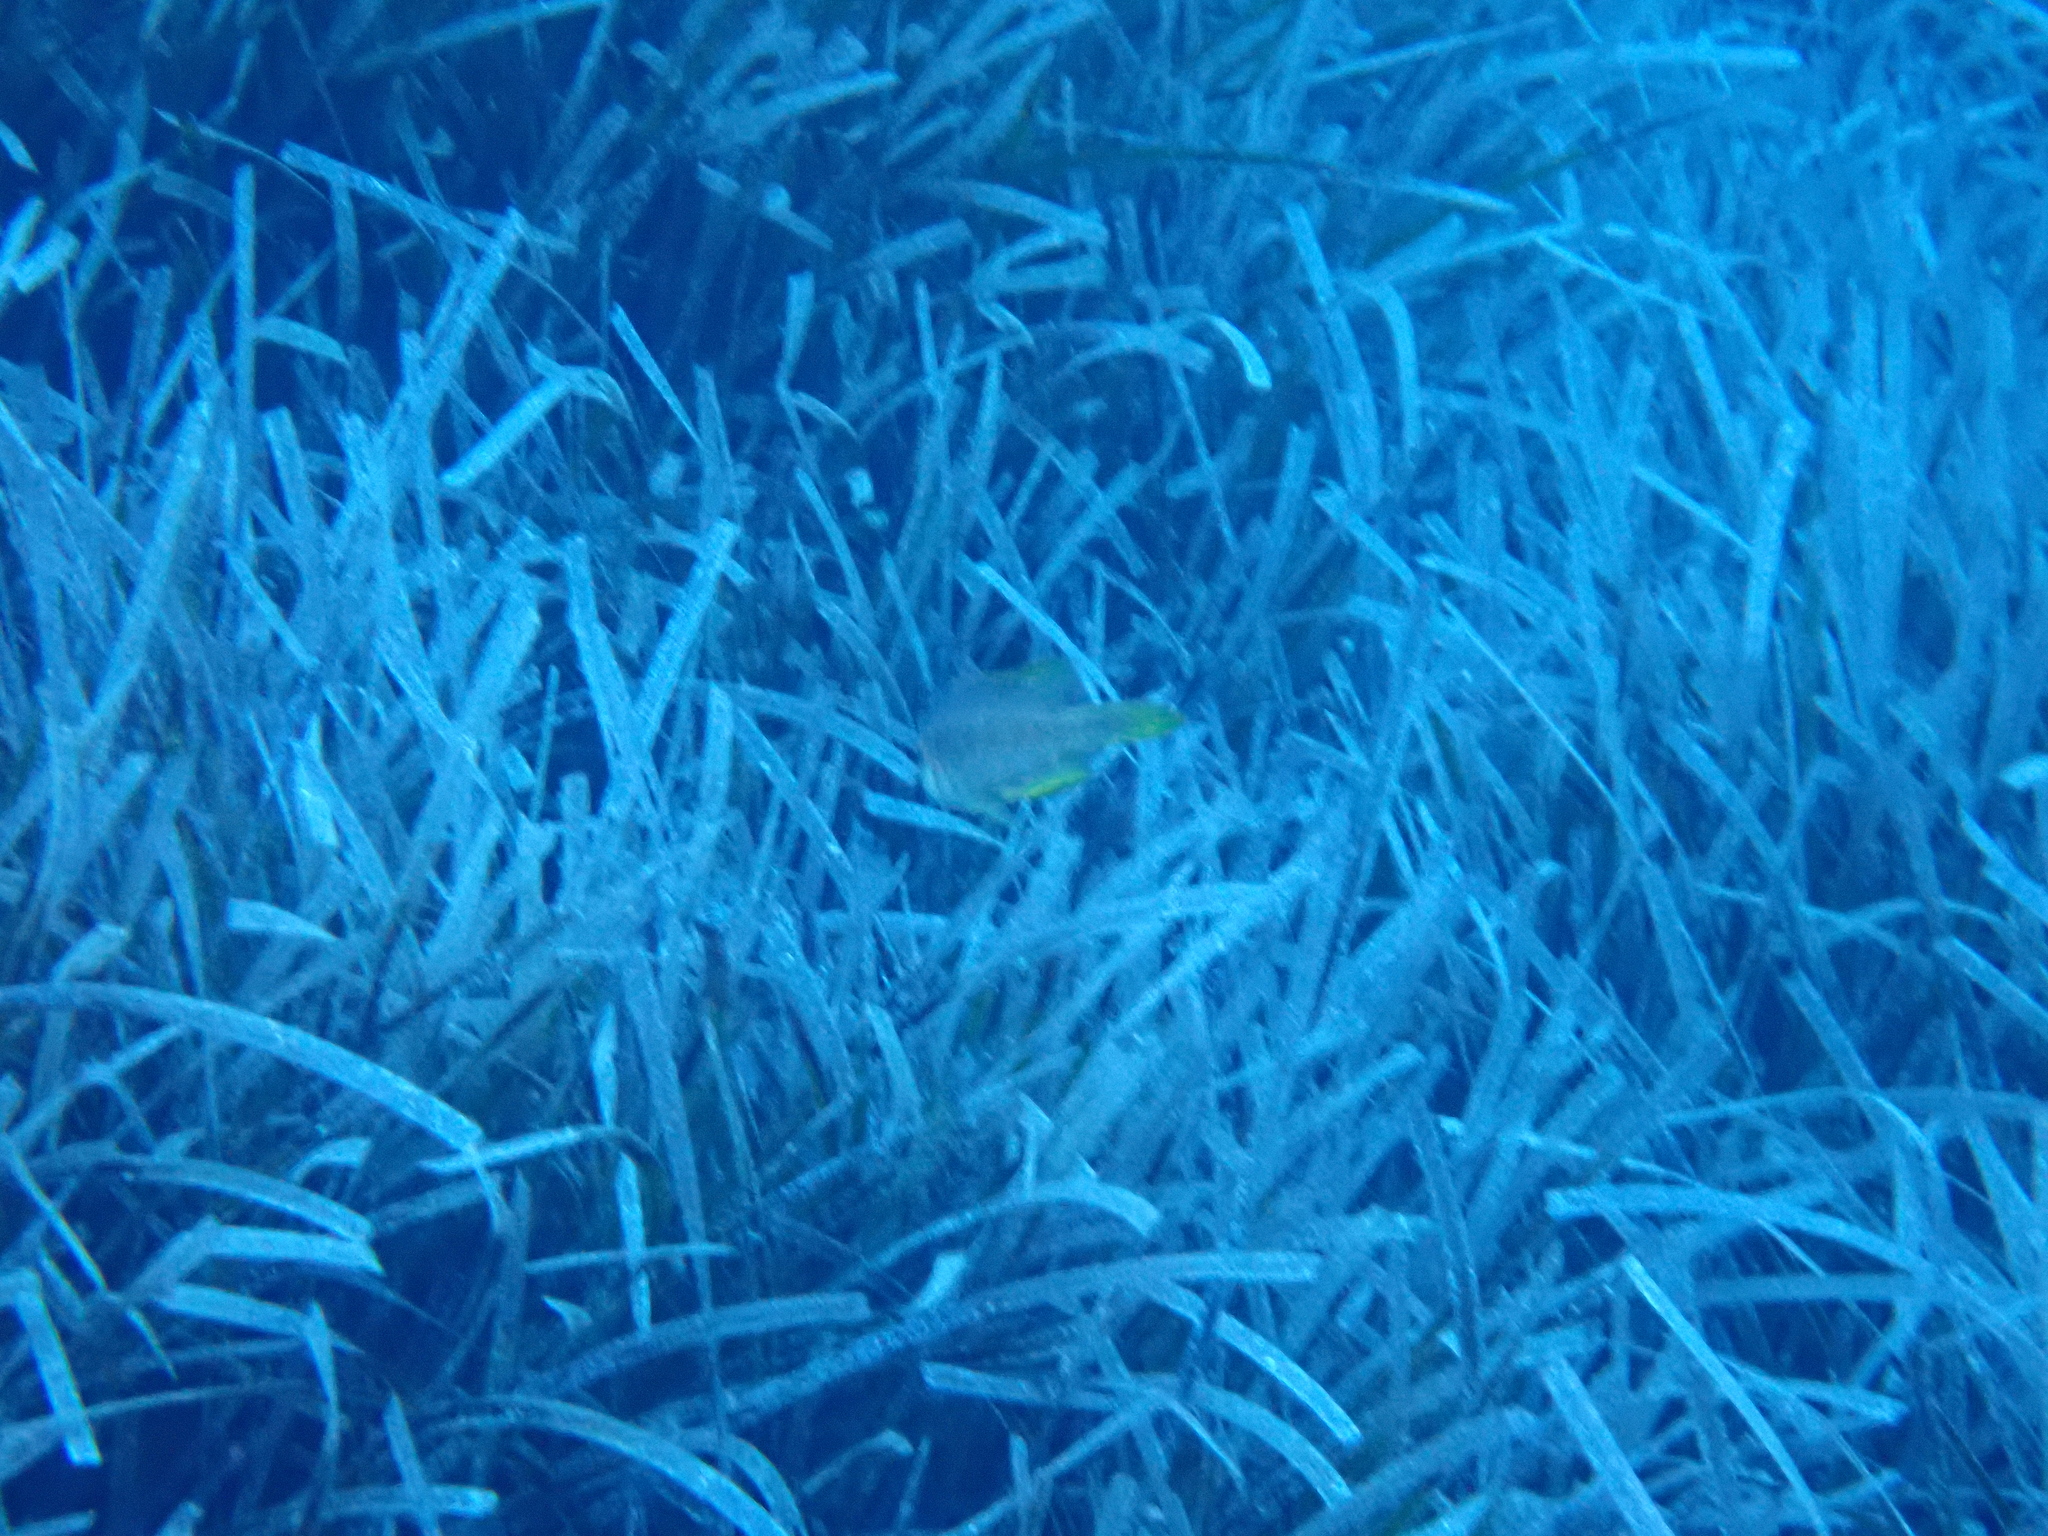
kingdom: Animalia
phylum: Chordata
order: Perciformes
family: Labridae
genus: Pteragogus
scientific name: Pteragogus trispilus
